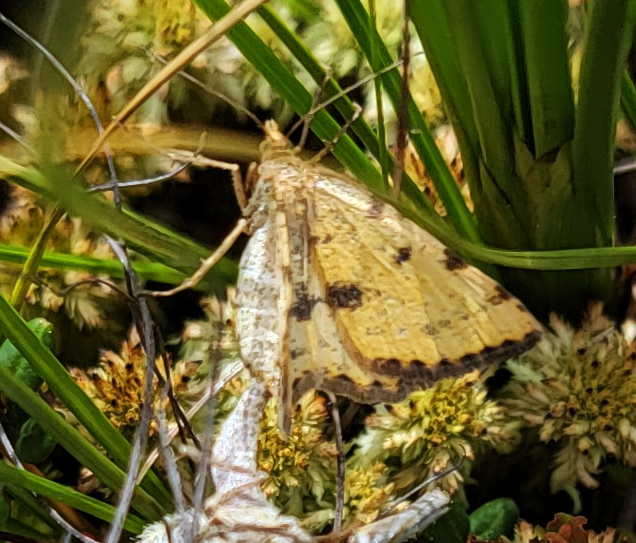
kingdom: Animalia
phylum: Arthropoda
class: Insecta
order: Lepidoptera
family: Geometridae
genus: Macaria
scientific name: Macaria sulphurea
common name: Sulphur angle
